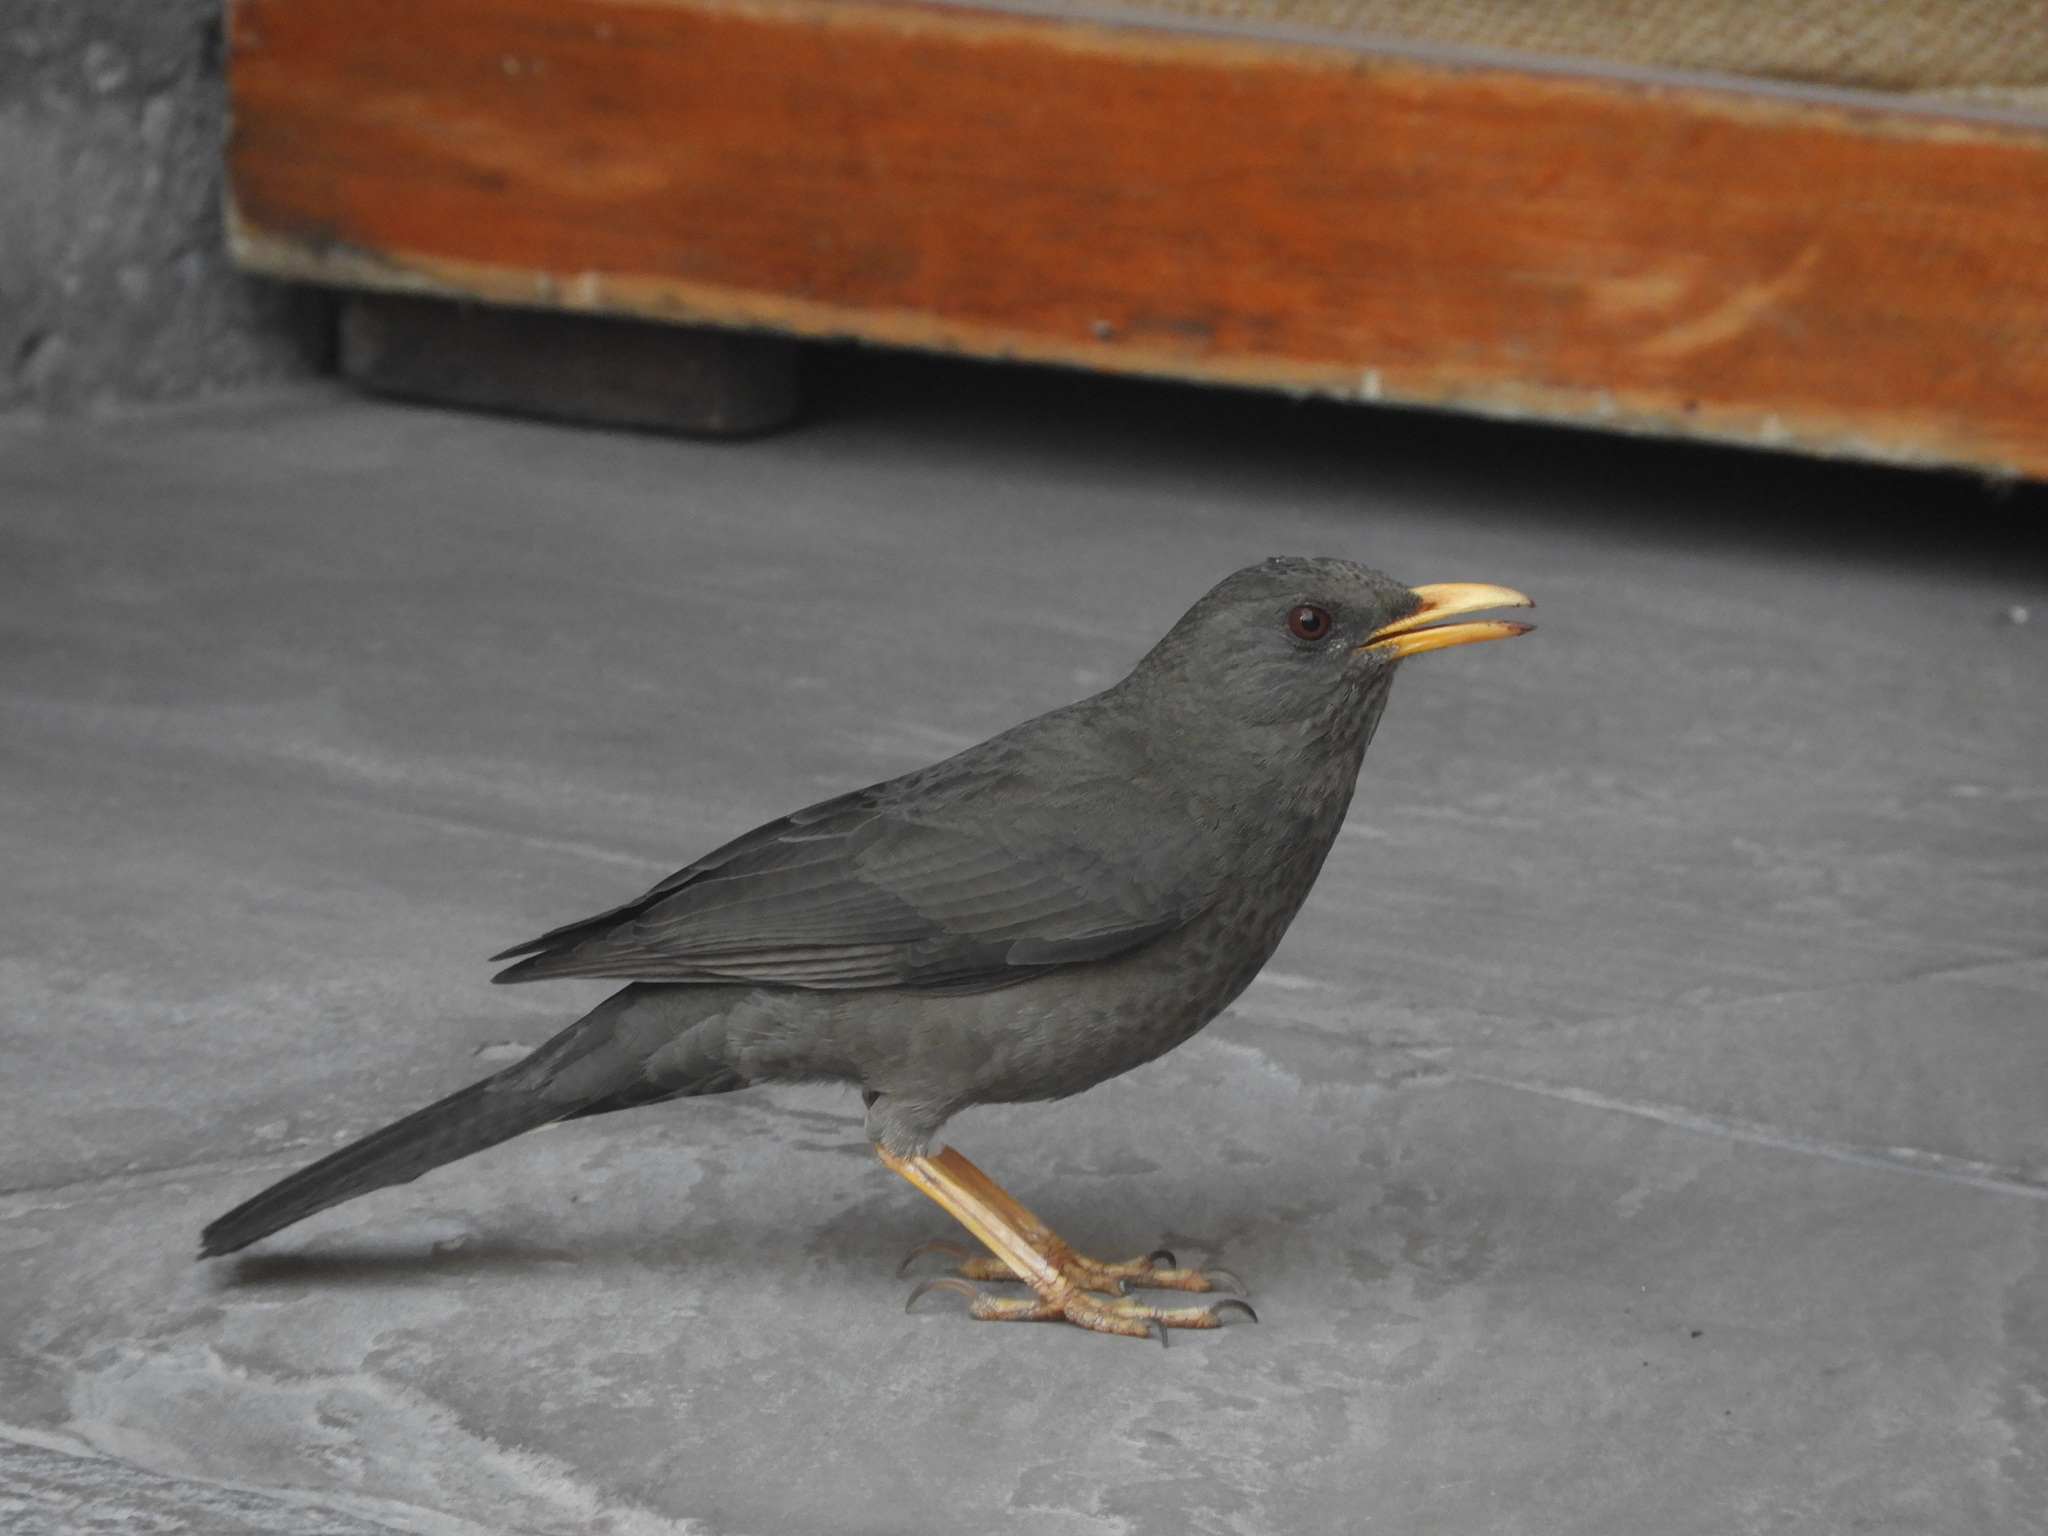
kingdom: Animalia
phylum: Chordata
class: Aves
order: Passeriformes
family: Turdidae
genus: Turdus
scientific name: Turdus chiguanco
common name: Chiguanco thrush
